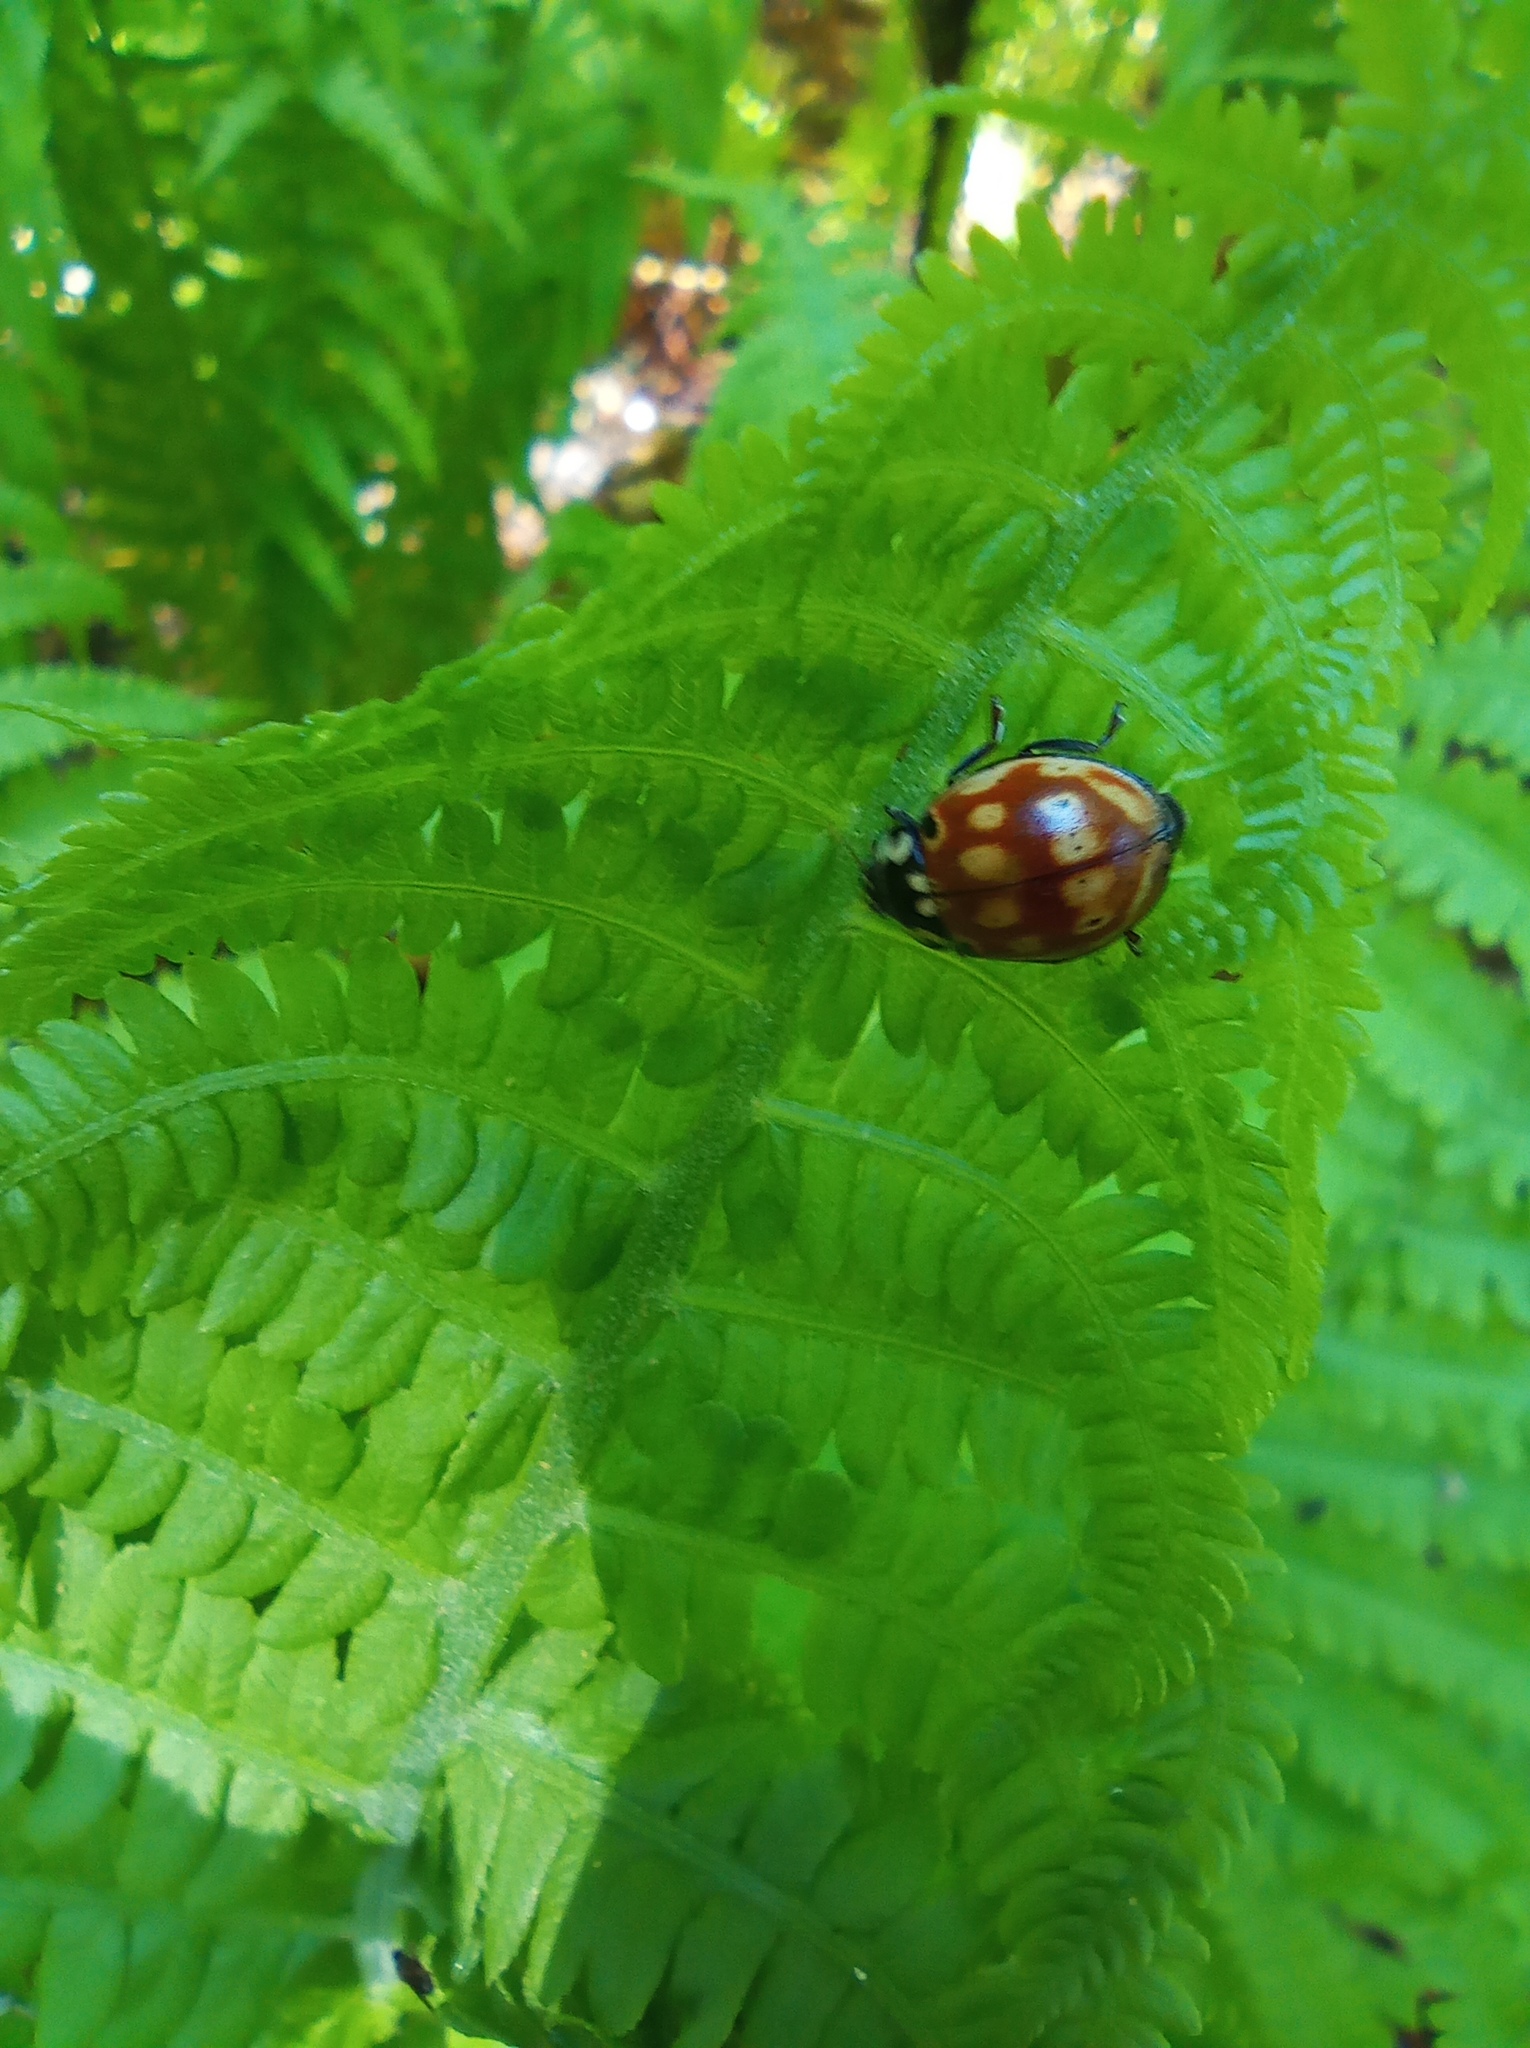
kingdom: Animalia
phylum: Arthropoda
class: Insecta
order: Coleoptera
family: Coccinellidae
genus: Anatis
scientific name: Anatis ocellata
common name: Eyed ladybird
